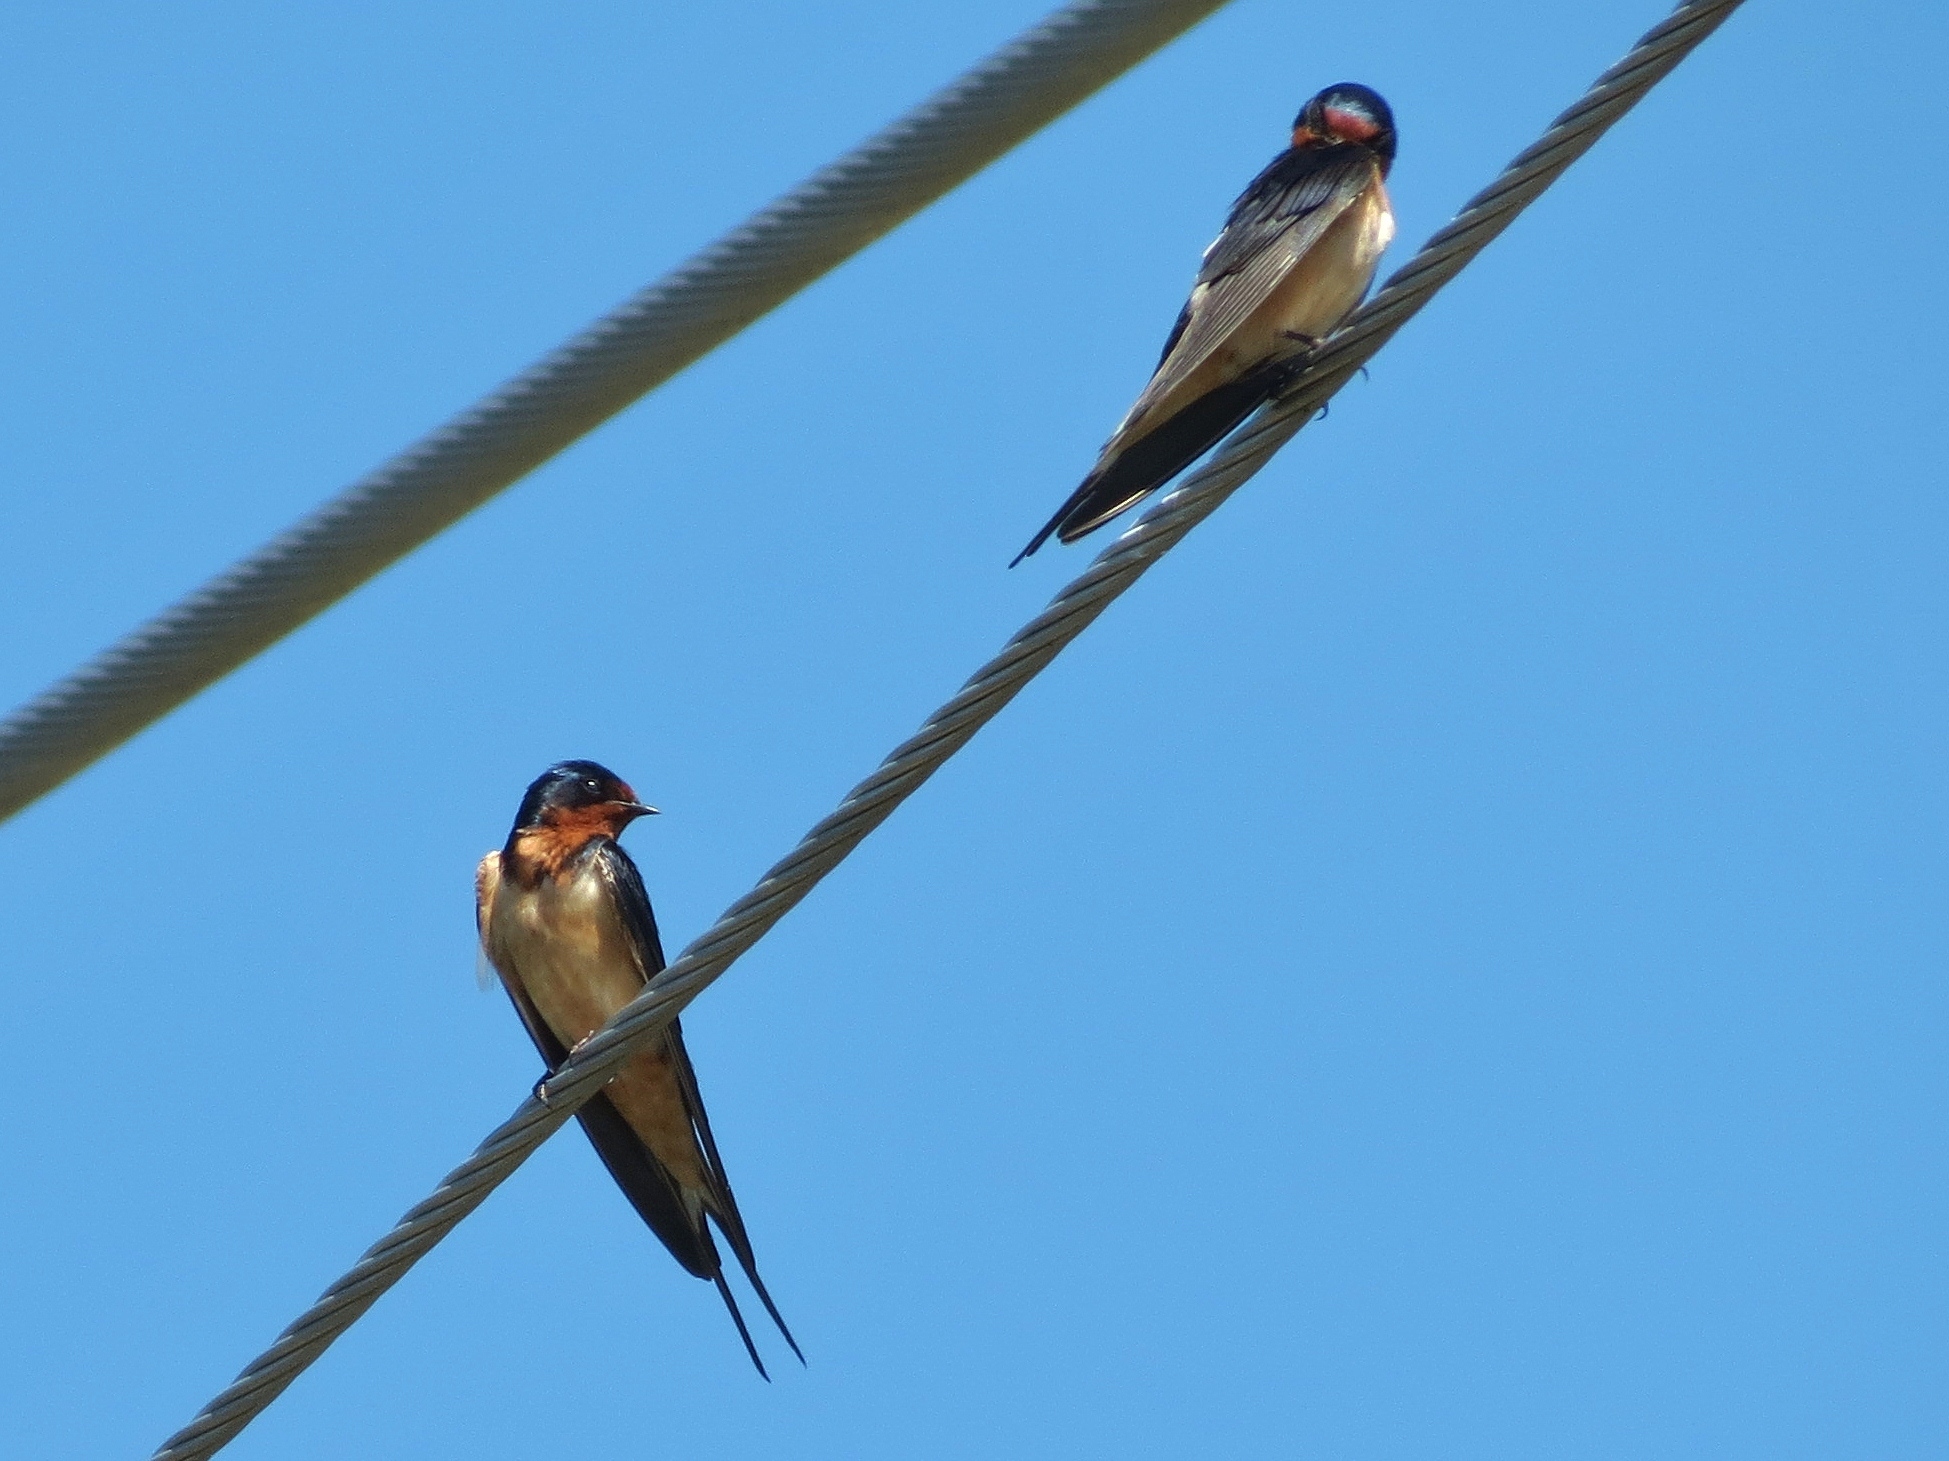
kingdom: Animalia
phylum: Chordata
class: Aves
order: Passeriformes
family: Hirundinidae
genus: Hirundo
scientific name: Hirundo rustica
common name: Barn swallow
